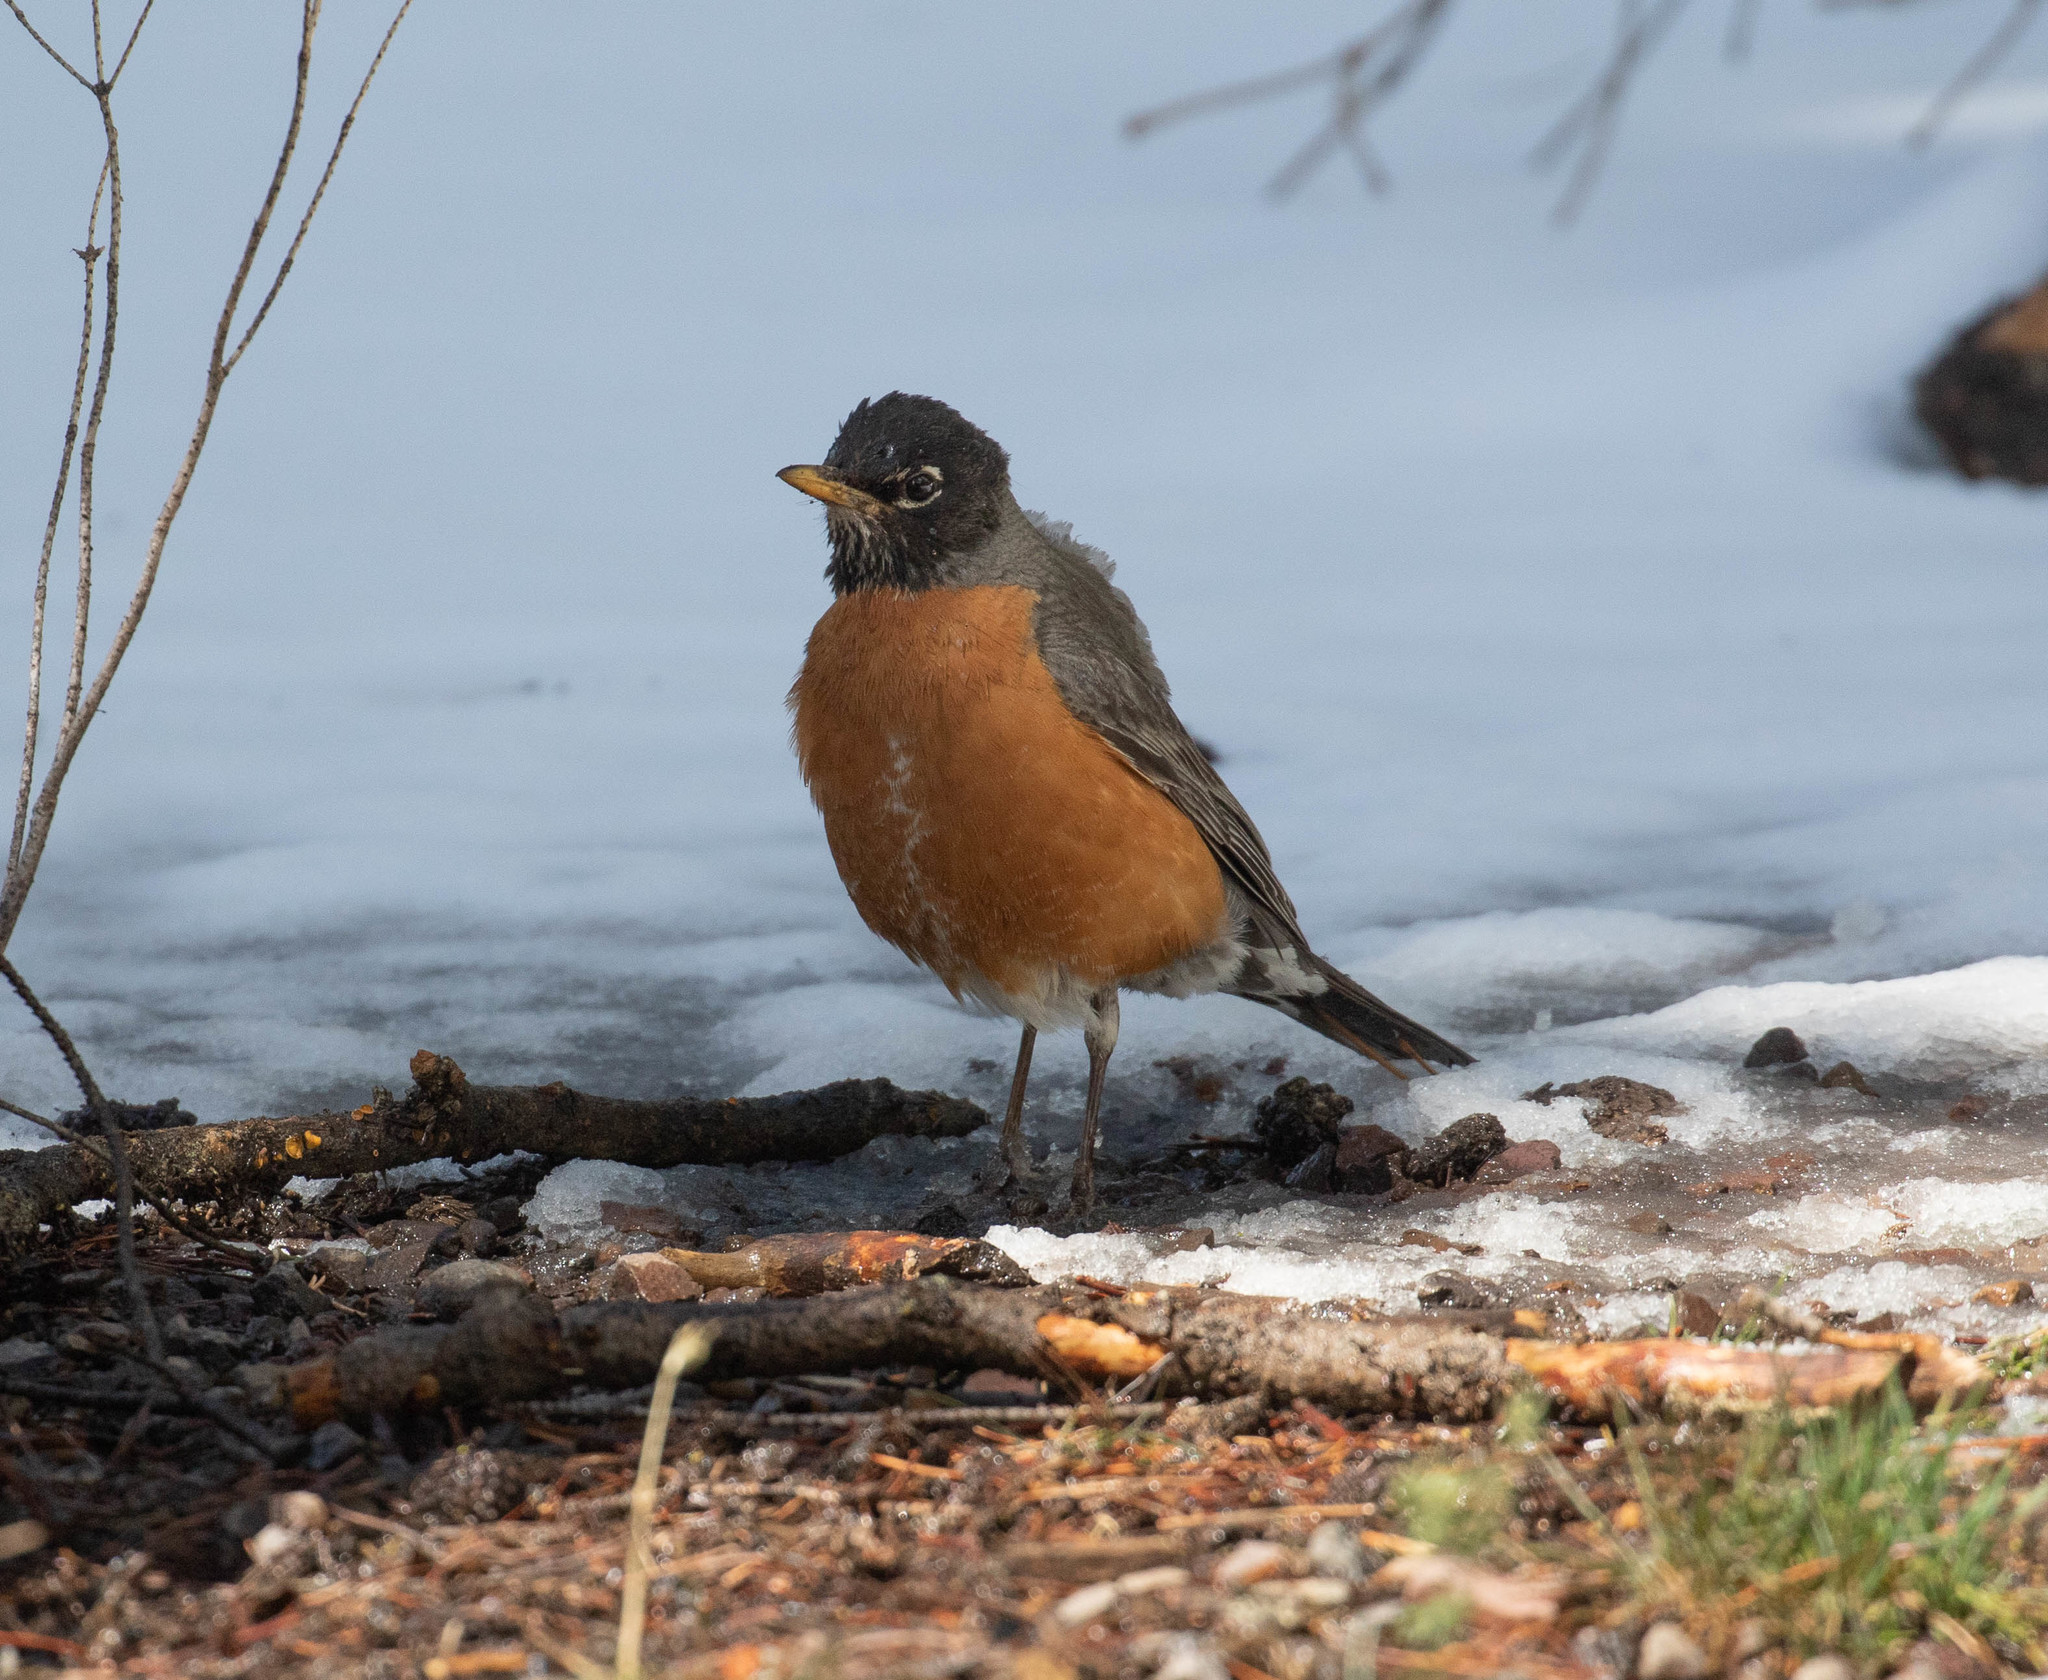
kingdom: Animalia
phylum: Chordata
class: Aves
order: Passeriformes
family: Turdidae
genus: Turdus
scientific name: Turdus migratorius
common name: American robin
